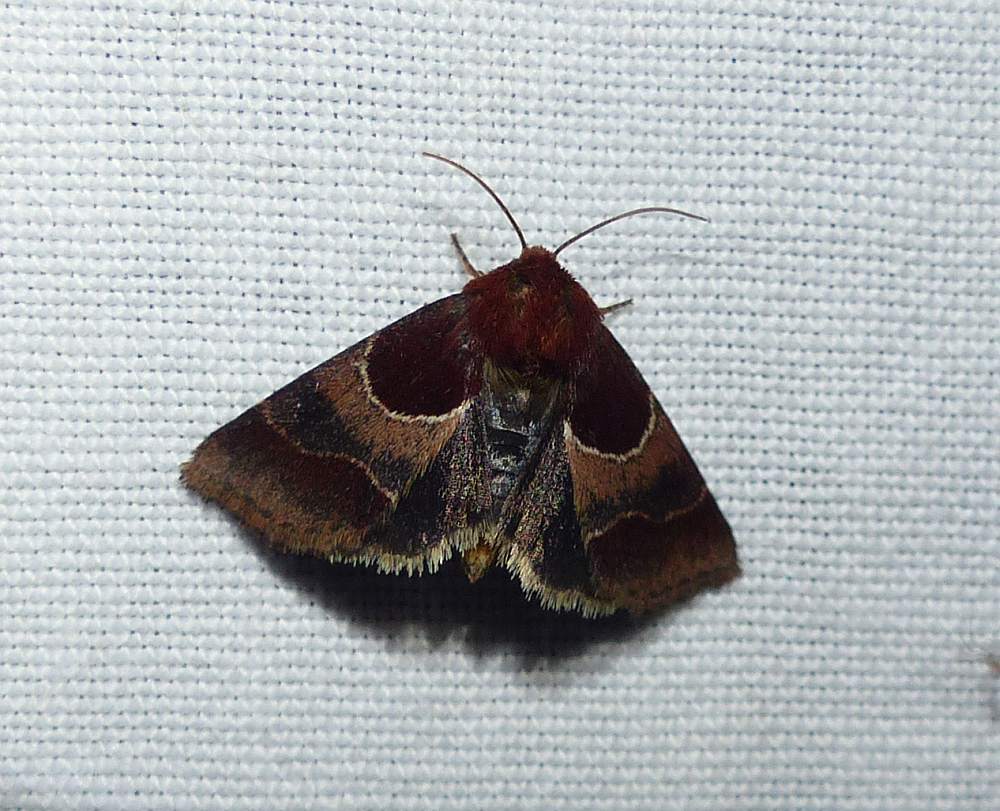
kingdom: Animalia
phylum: Arthropoda
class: Insecta
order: Lepidoptera
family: Noctuidae
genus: Schinia
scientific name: Schinia arcigera
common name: Arcigera flower moth
